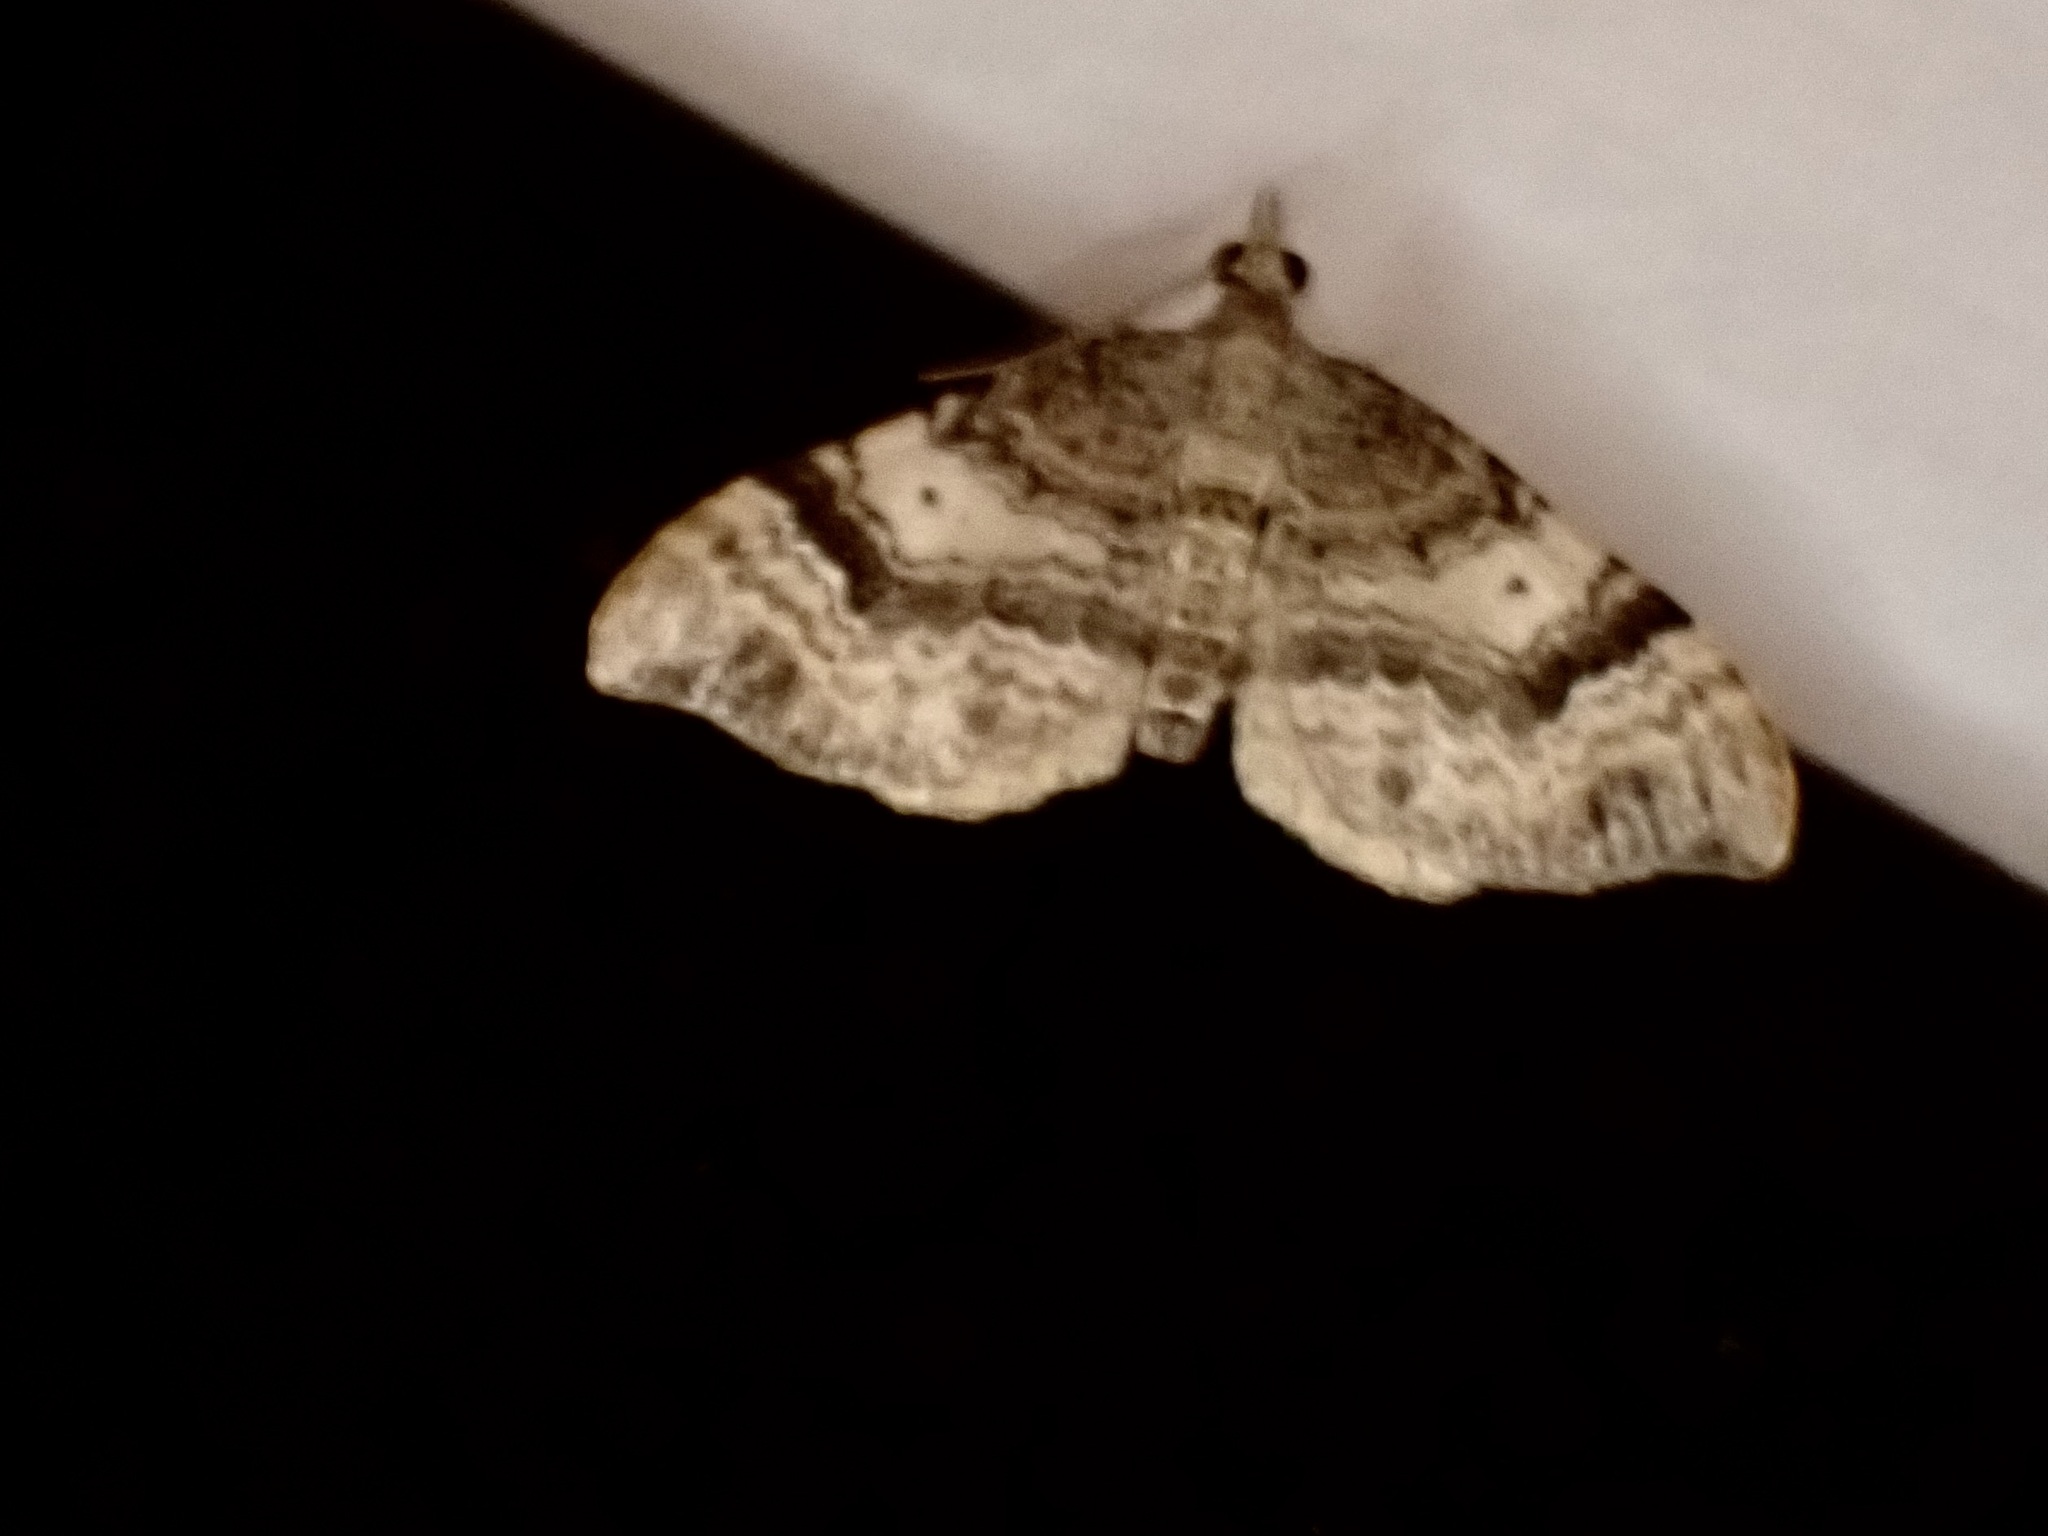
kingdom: Animalia
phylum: Arthropoda
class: Insecta
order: Lepidoptera
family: Geometridae
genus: Homodotis
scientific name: Homodotis megaspilata
